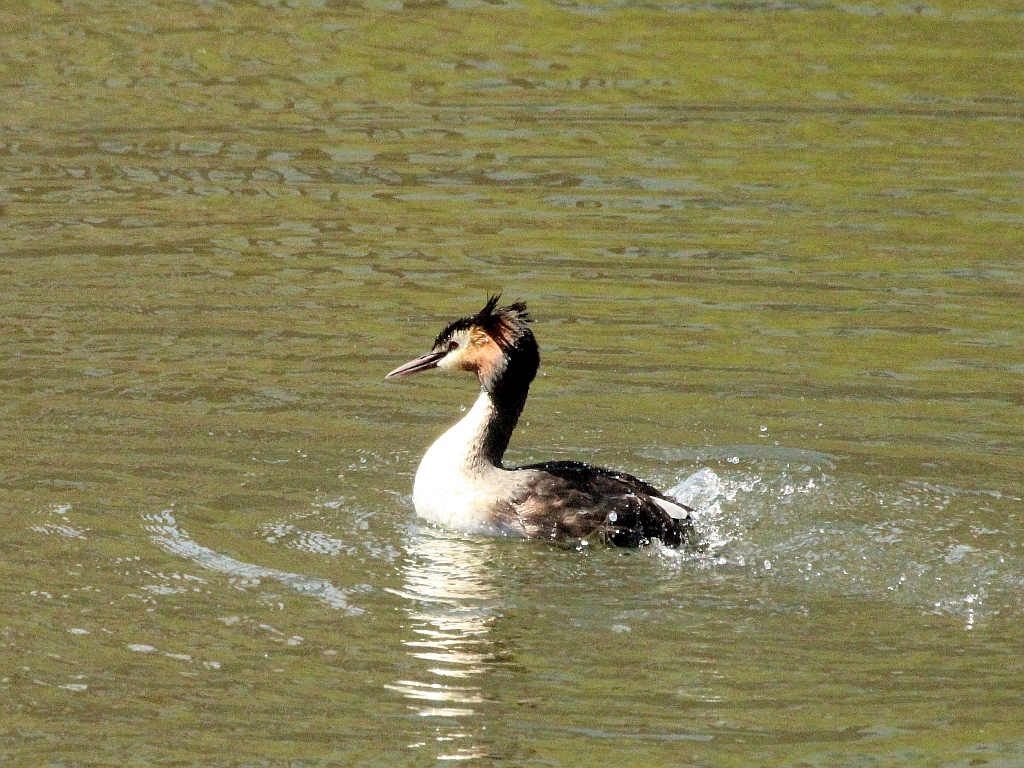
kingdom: Animalia
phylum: Chordata
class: Aves
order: Podicipediformes
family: Podicipedidae
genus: Podiceps
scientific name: Podiceps cristatus
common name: Great crested grebe
